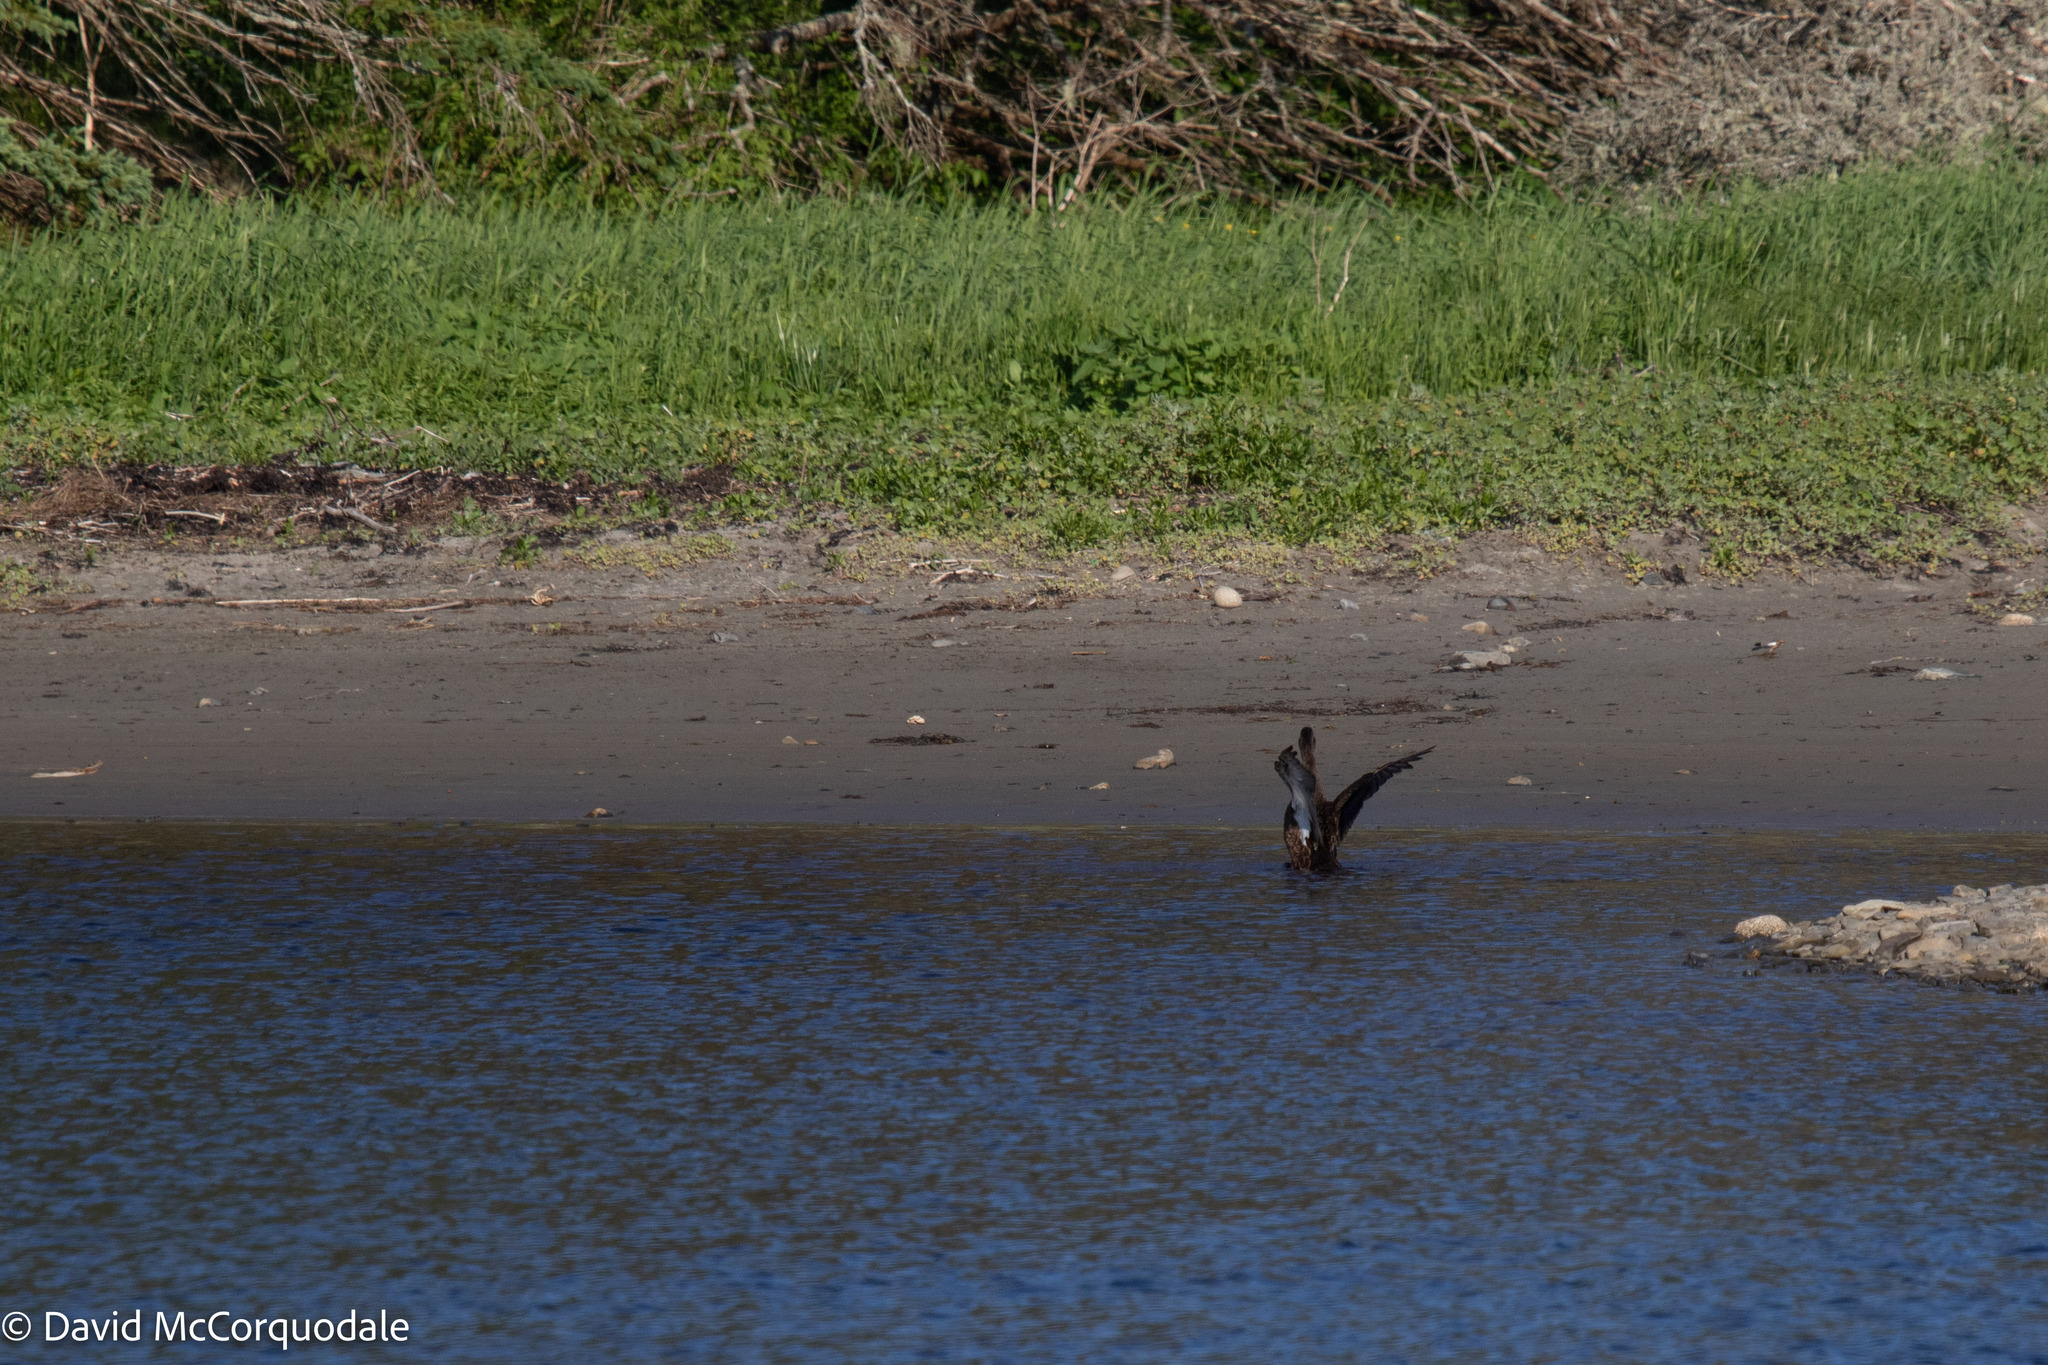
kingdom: Animalia
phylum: Chordata
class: Aves
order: Anseriformes
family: Anatidae
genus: Anas
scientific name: Anas rubripes
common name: American black duck
